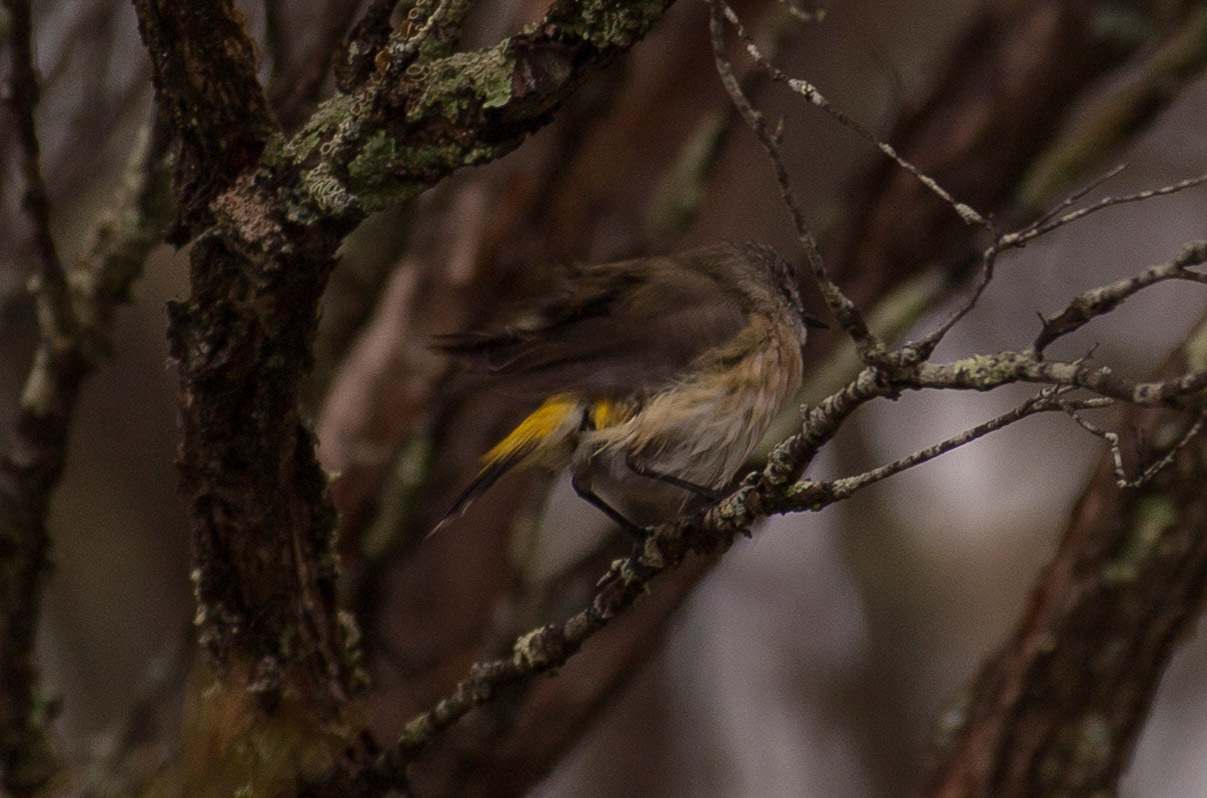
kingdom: Animalia
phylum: Chordata
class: Aves
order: Passeriformes
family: Acanthizidae
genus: Acanthiza
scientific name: Acanthiza chrysorrhoa
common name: Yellow-rumped thornbill
